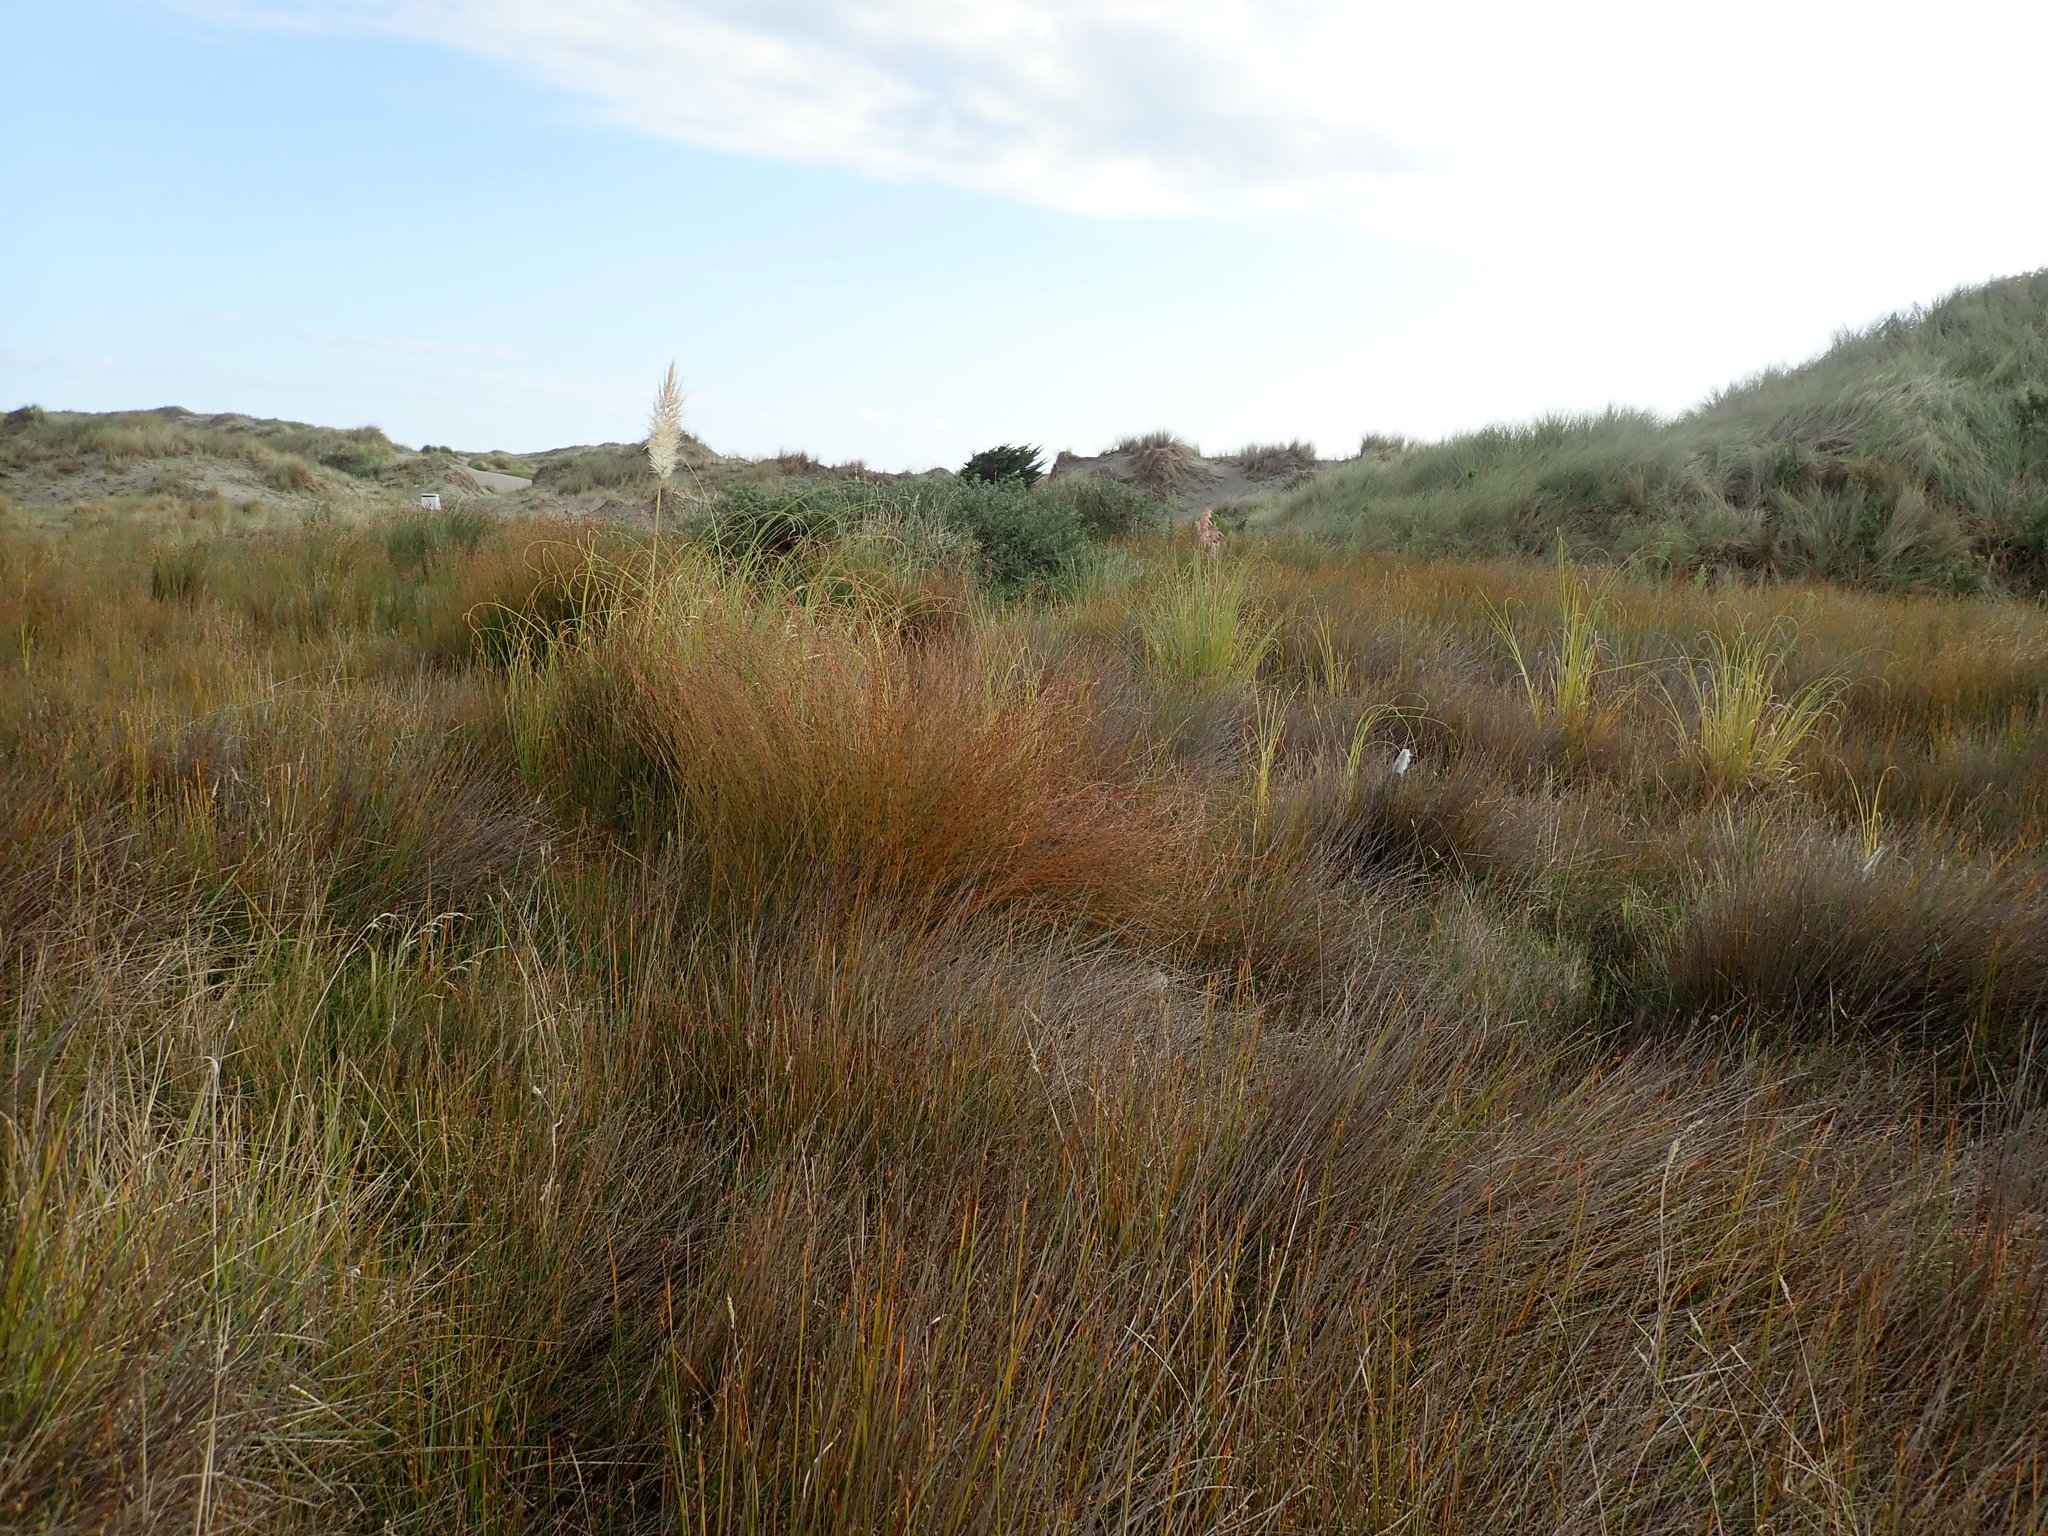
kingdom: Plantae
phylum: Tracheophyta
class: Liliopsida
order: Poales
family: Restionaceae
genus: Apodasmia
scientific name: Apodasmia similis
